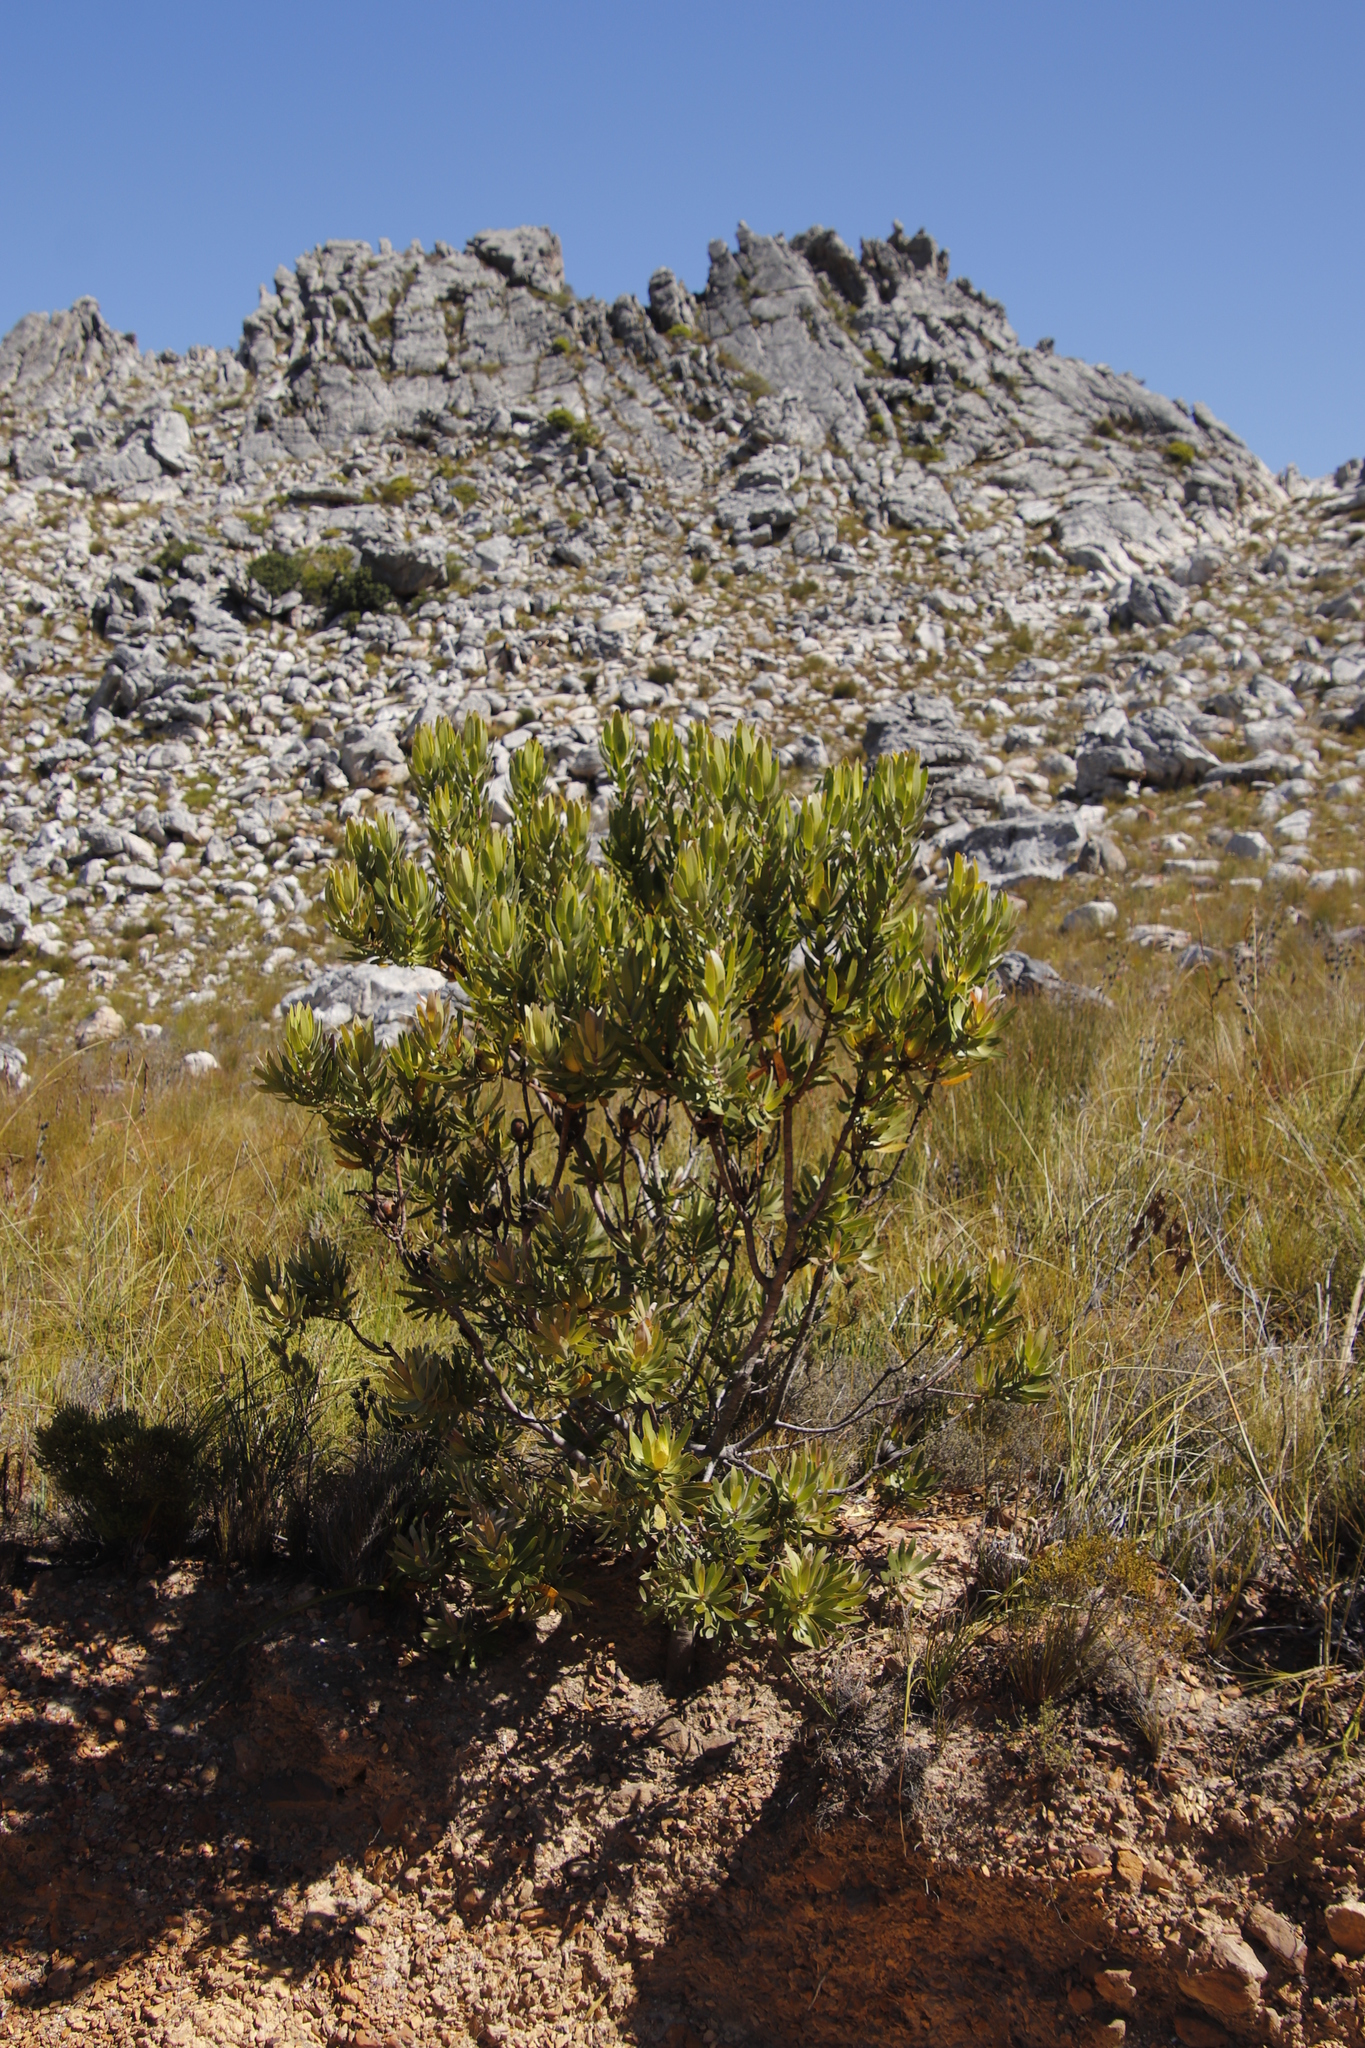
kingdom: Plantae
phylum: Tracheophyta
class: Magnoliopsida
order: Proteales
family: Proteaceae
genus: Leucadendron
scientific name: Leucadendron laureolum
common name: Golden sunshinebush
